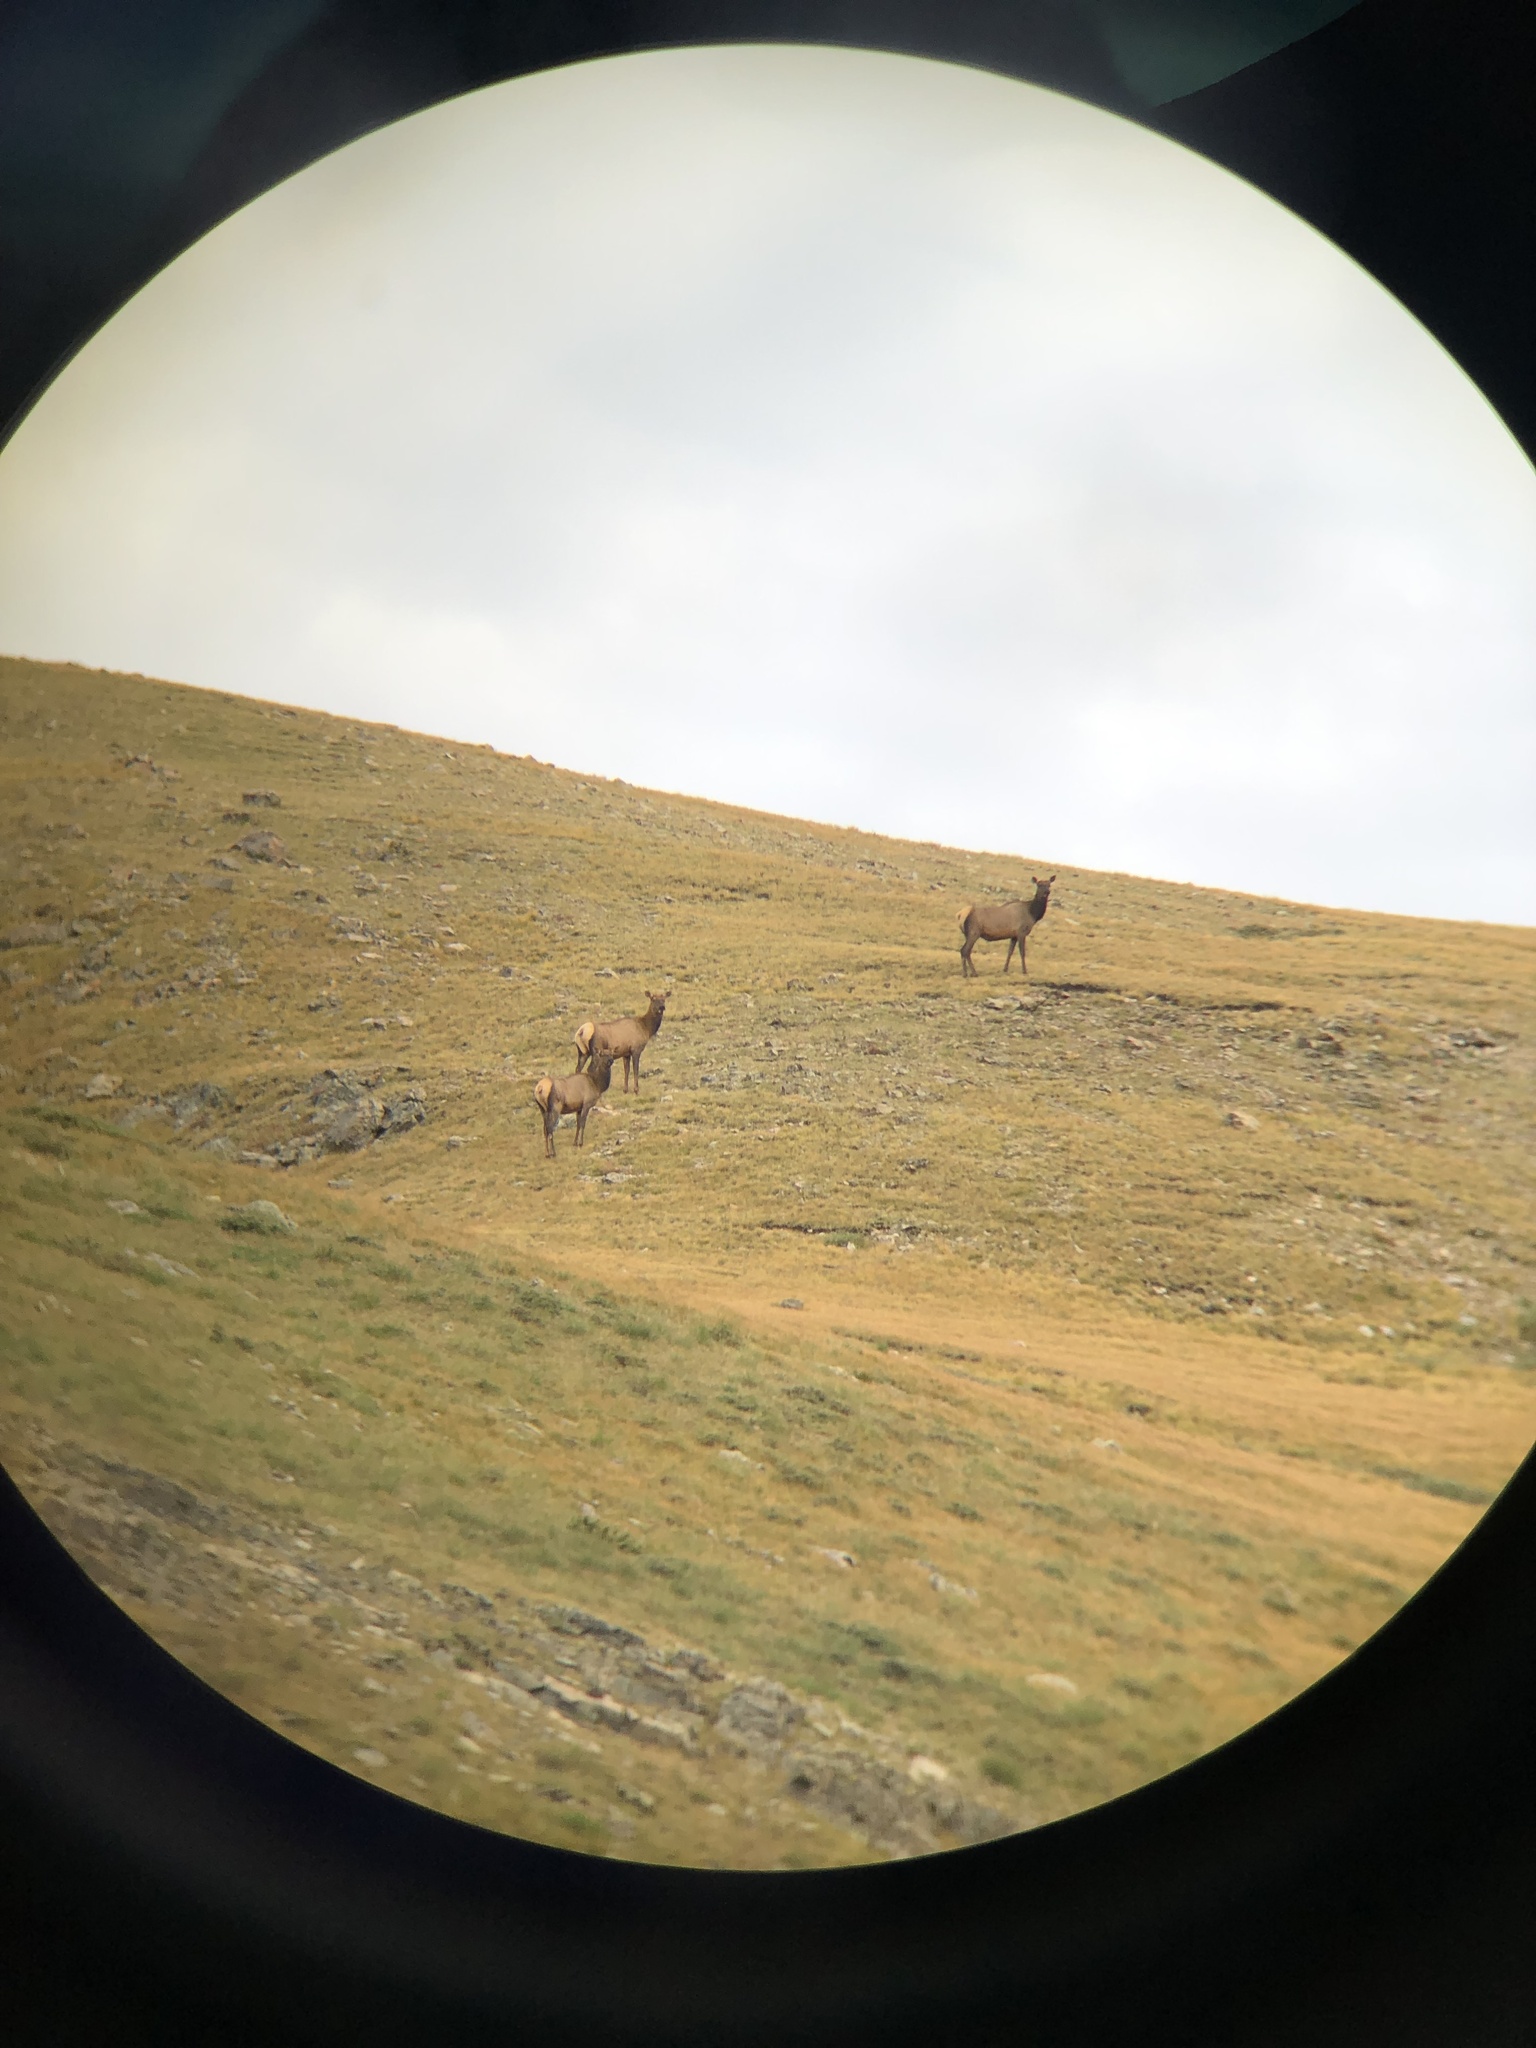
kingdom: Animalia
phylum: Chordata
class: Mammalia
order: Artiodactyla
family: Cervidae
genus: Cervus
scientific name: Cervus elaphus
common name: Red deer
